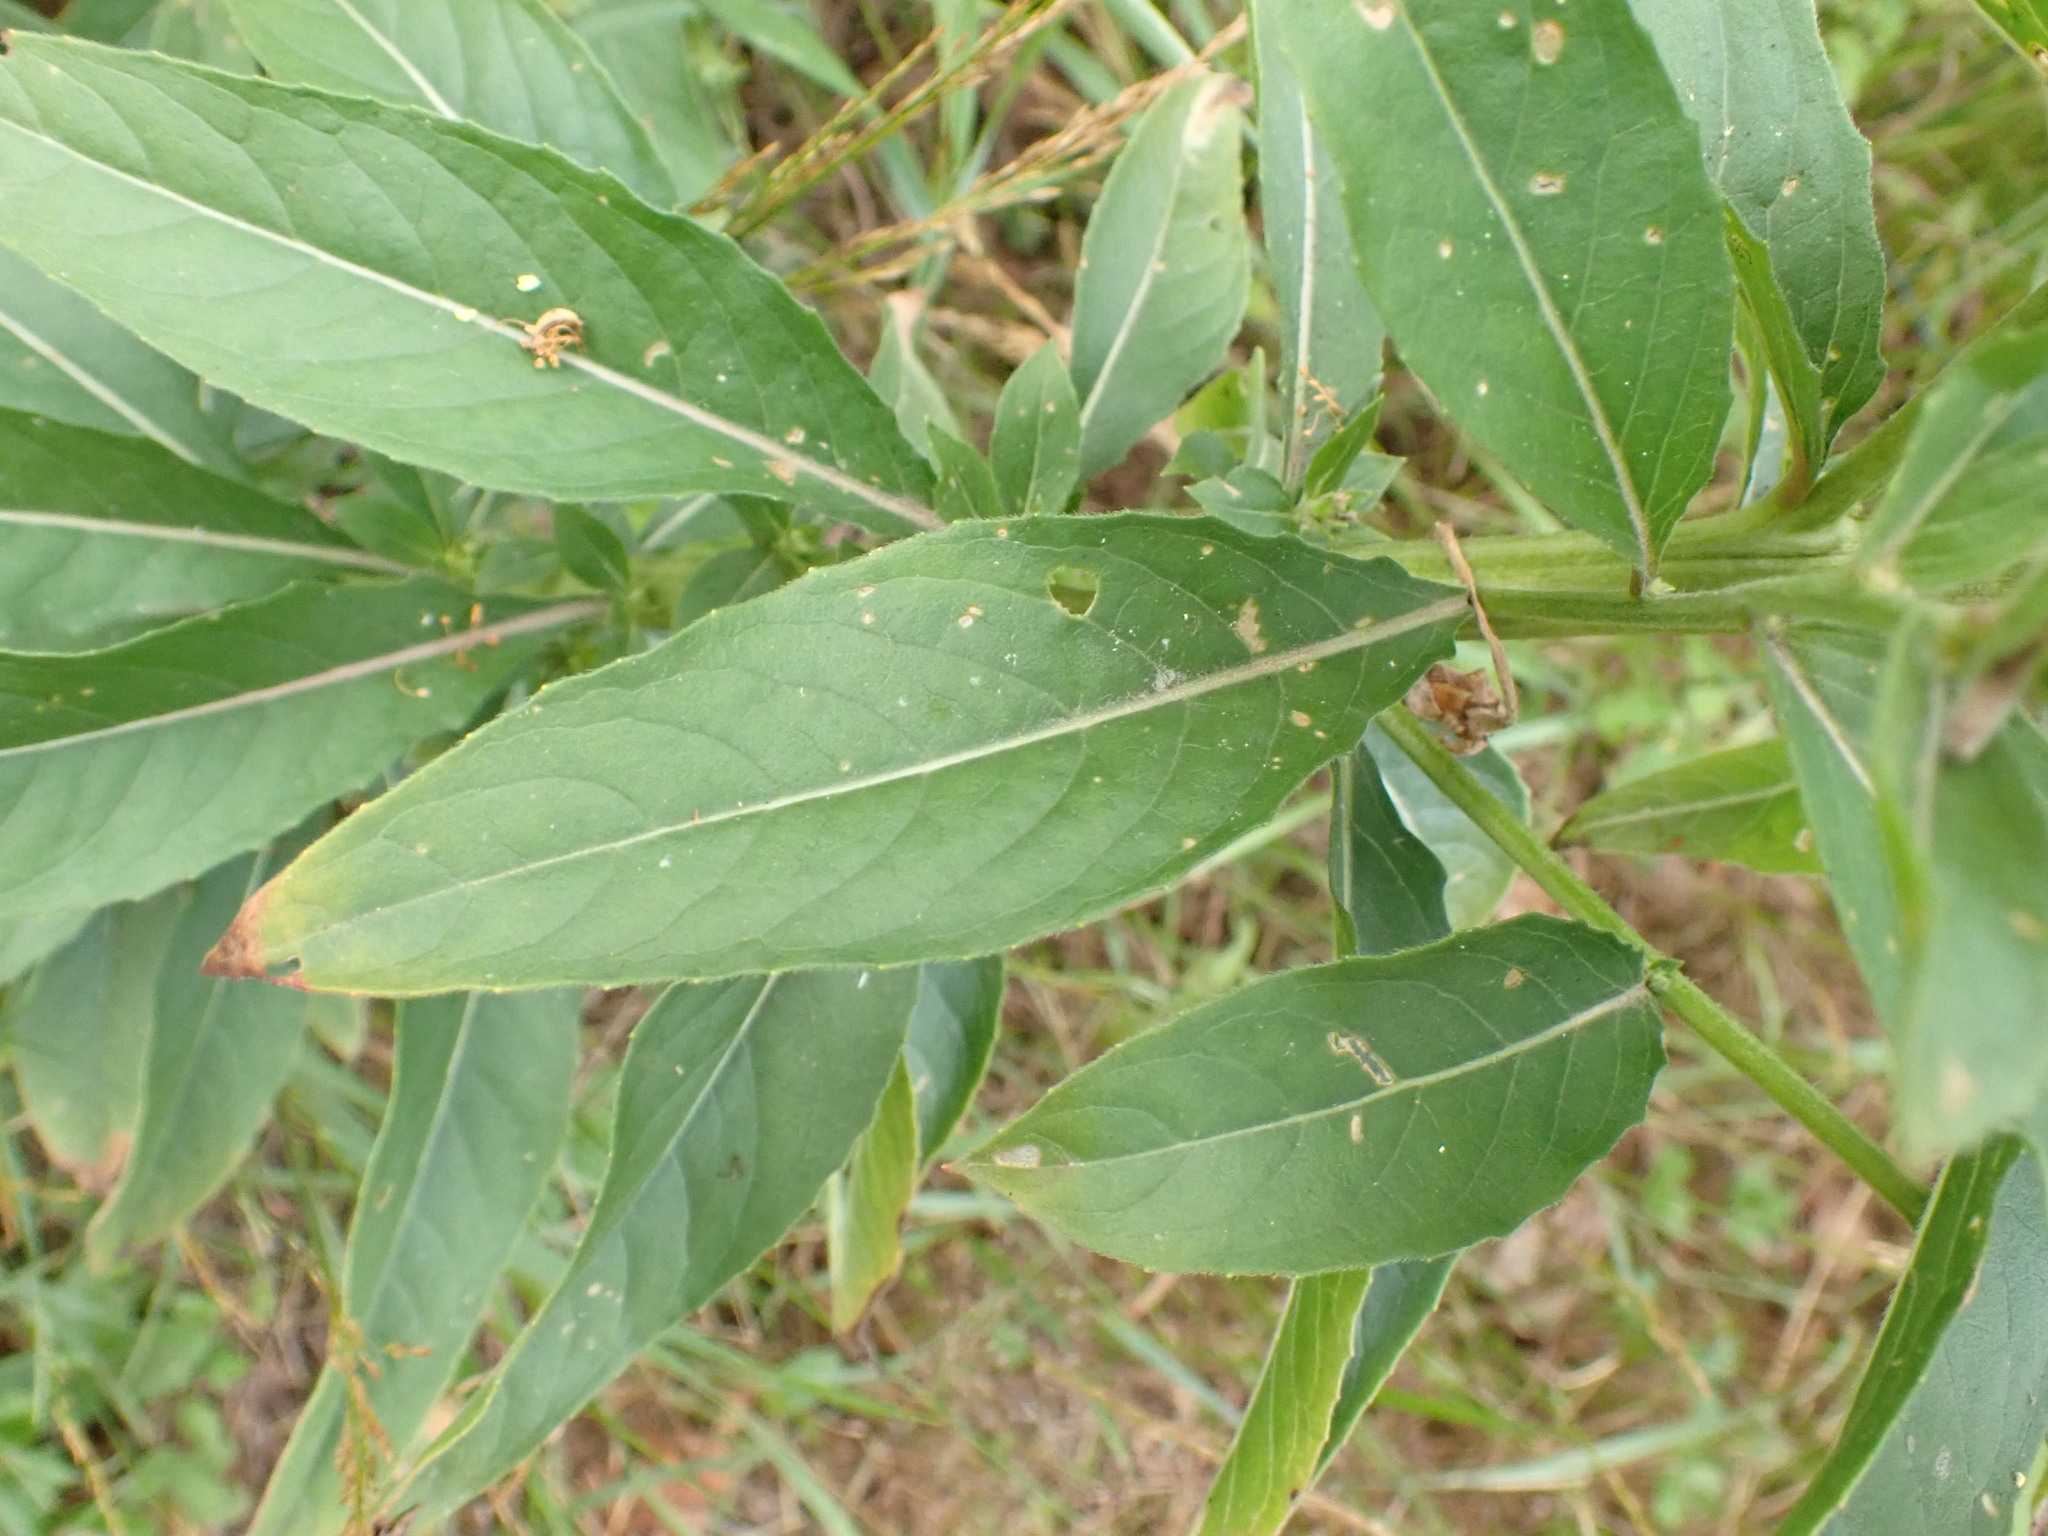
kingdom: Plantae
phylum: Tracheophyta
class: Magnoliopsida
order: Myrtales
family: Onagraceae
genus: Oenothera
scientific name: Oenothera biennis
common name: Common evening-primrose
